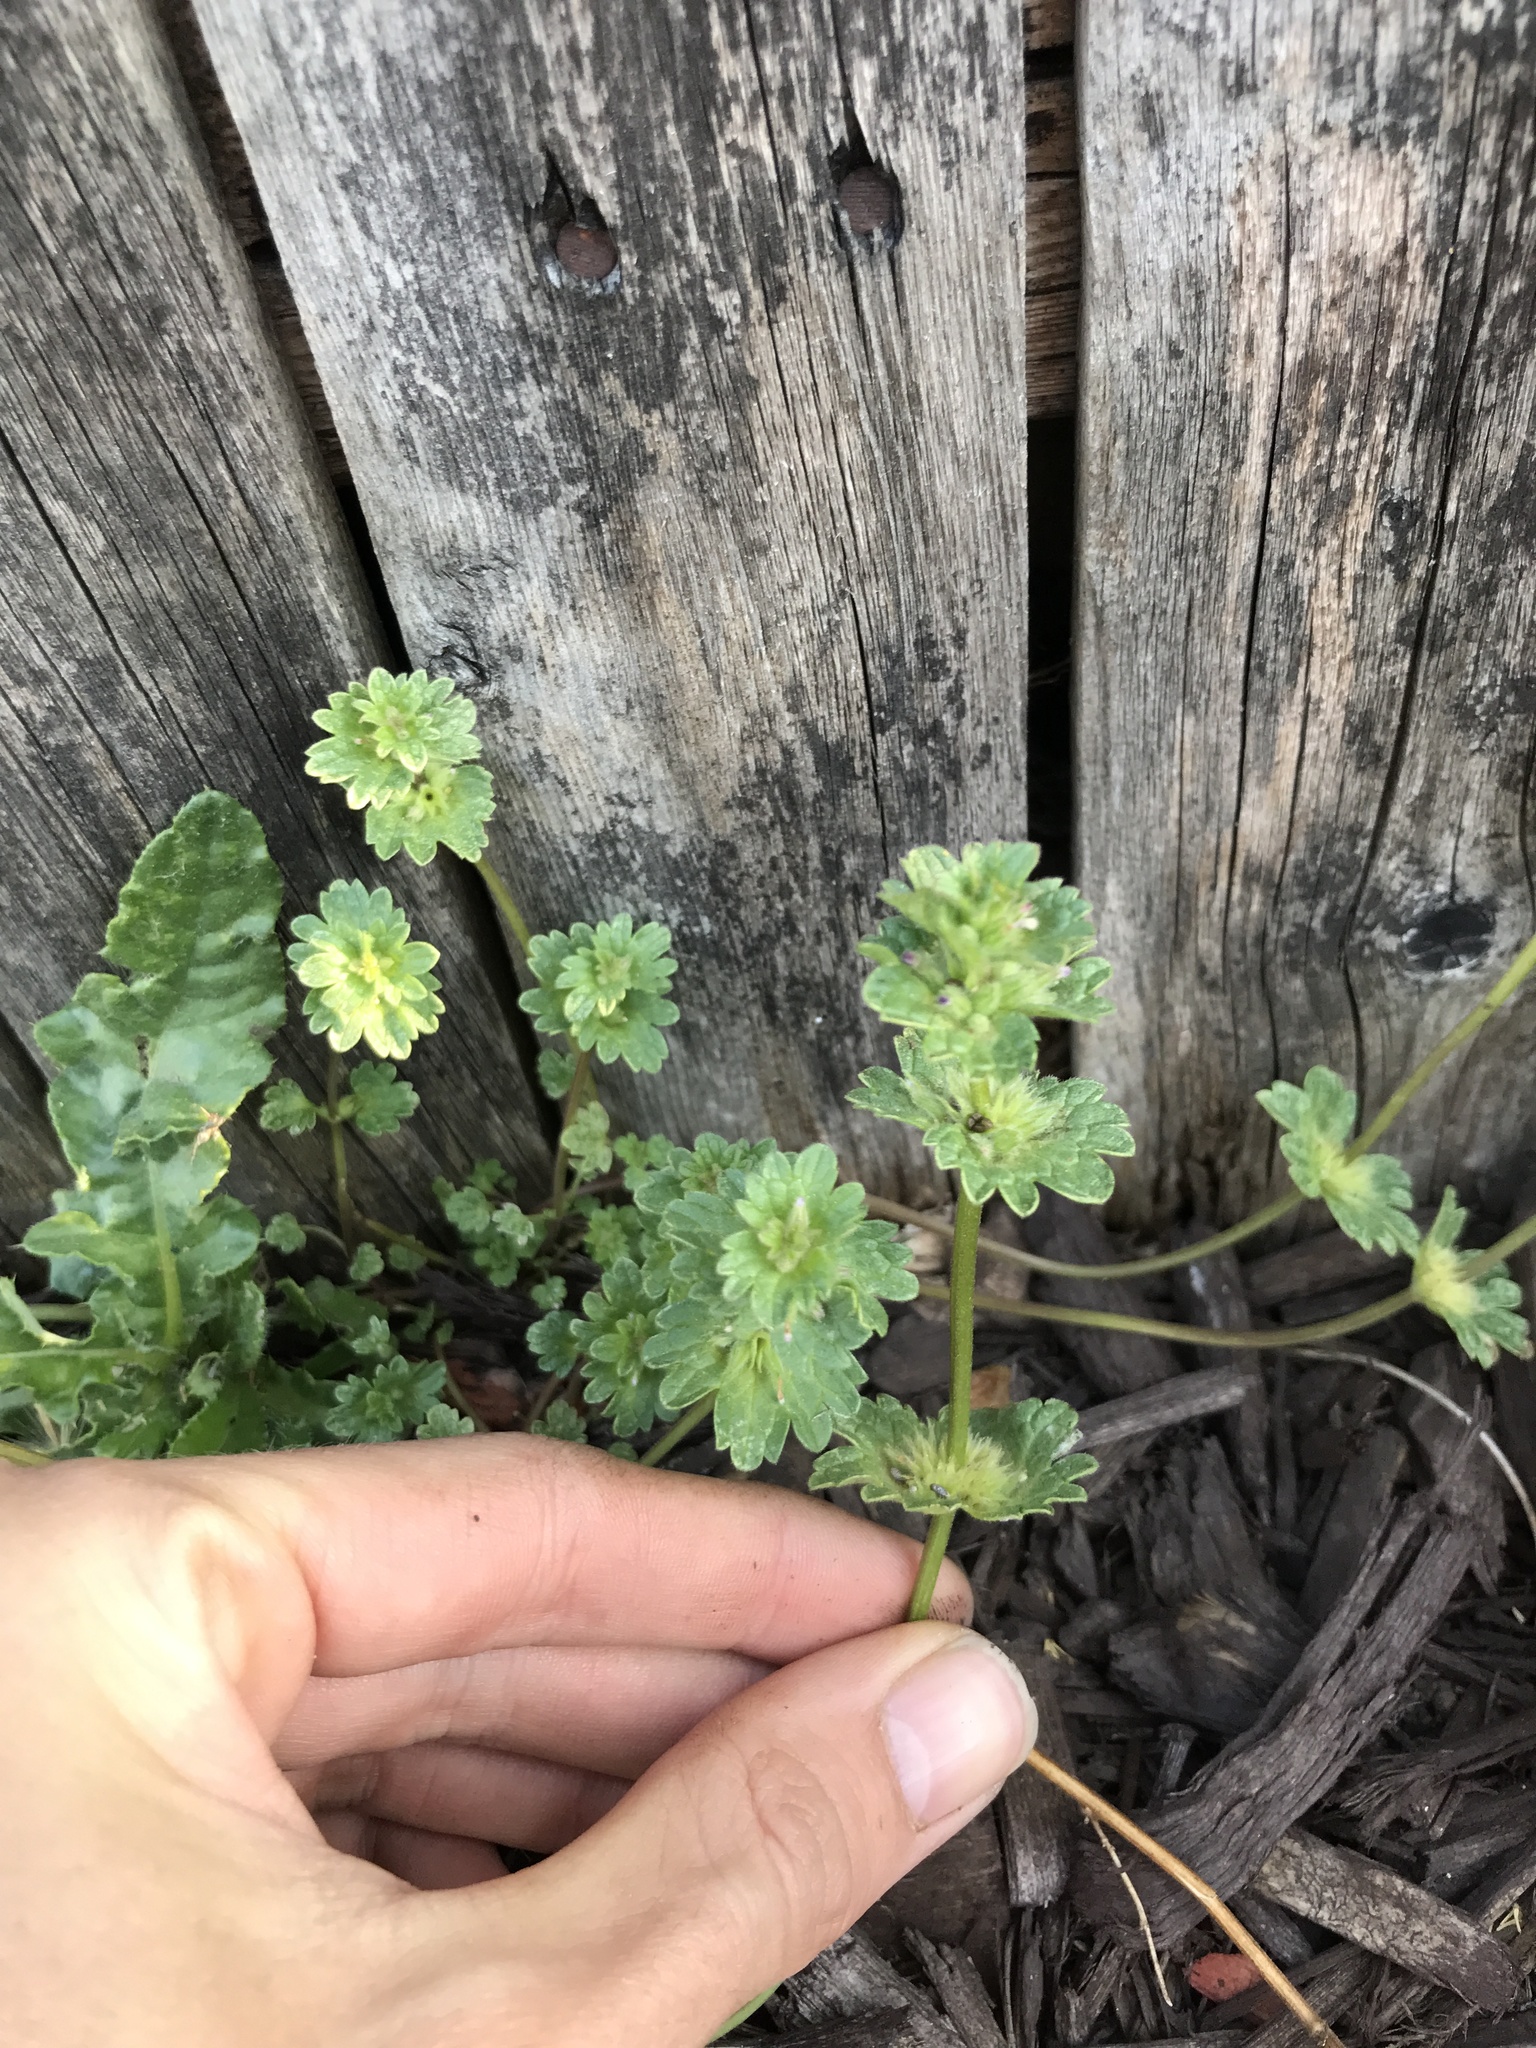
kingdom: Plantae
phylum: Tracheophyta
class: Magnoliopsida
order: Lamiales
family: Lamiaceae
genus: Lamium
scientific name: Lamium amplexicaule
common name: Henbit dead-nettle
